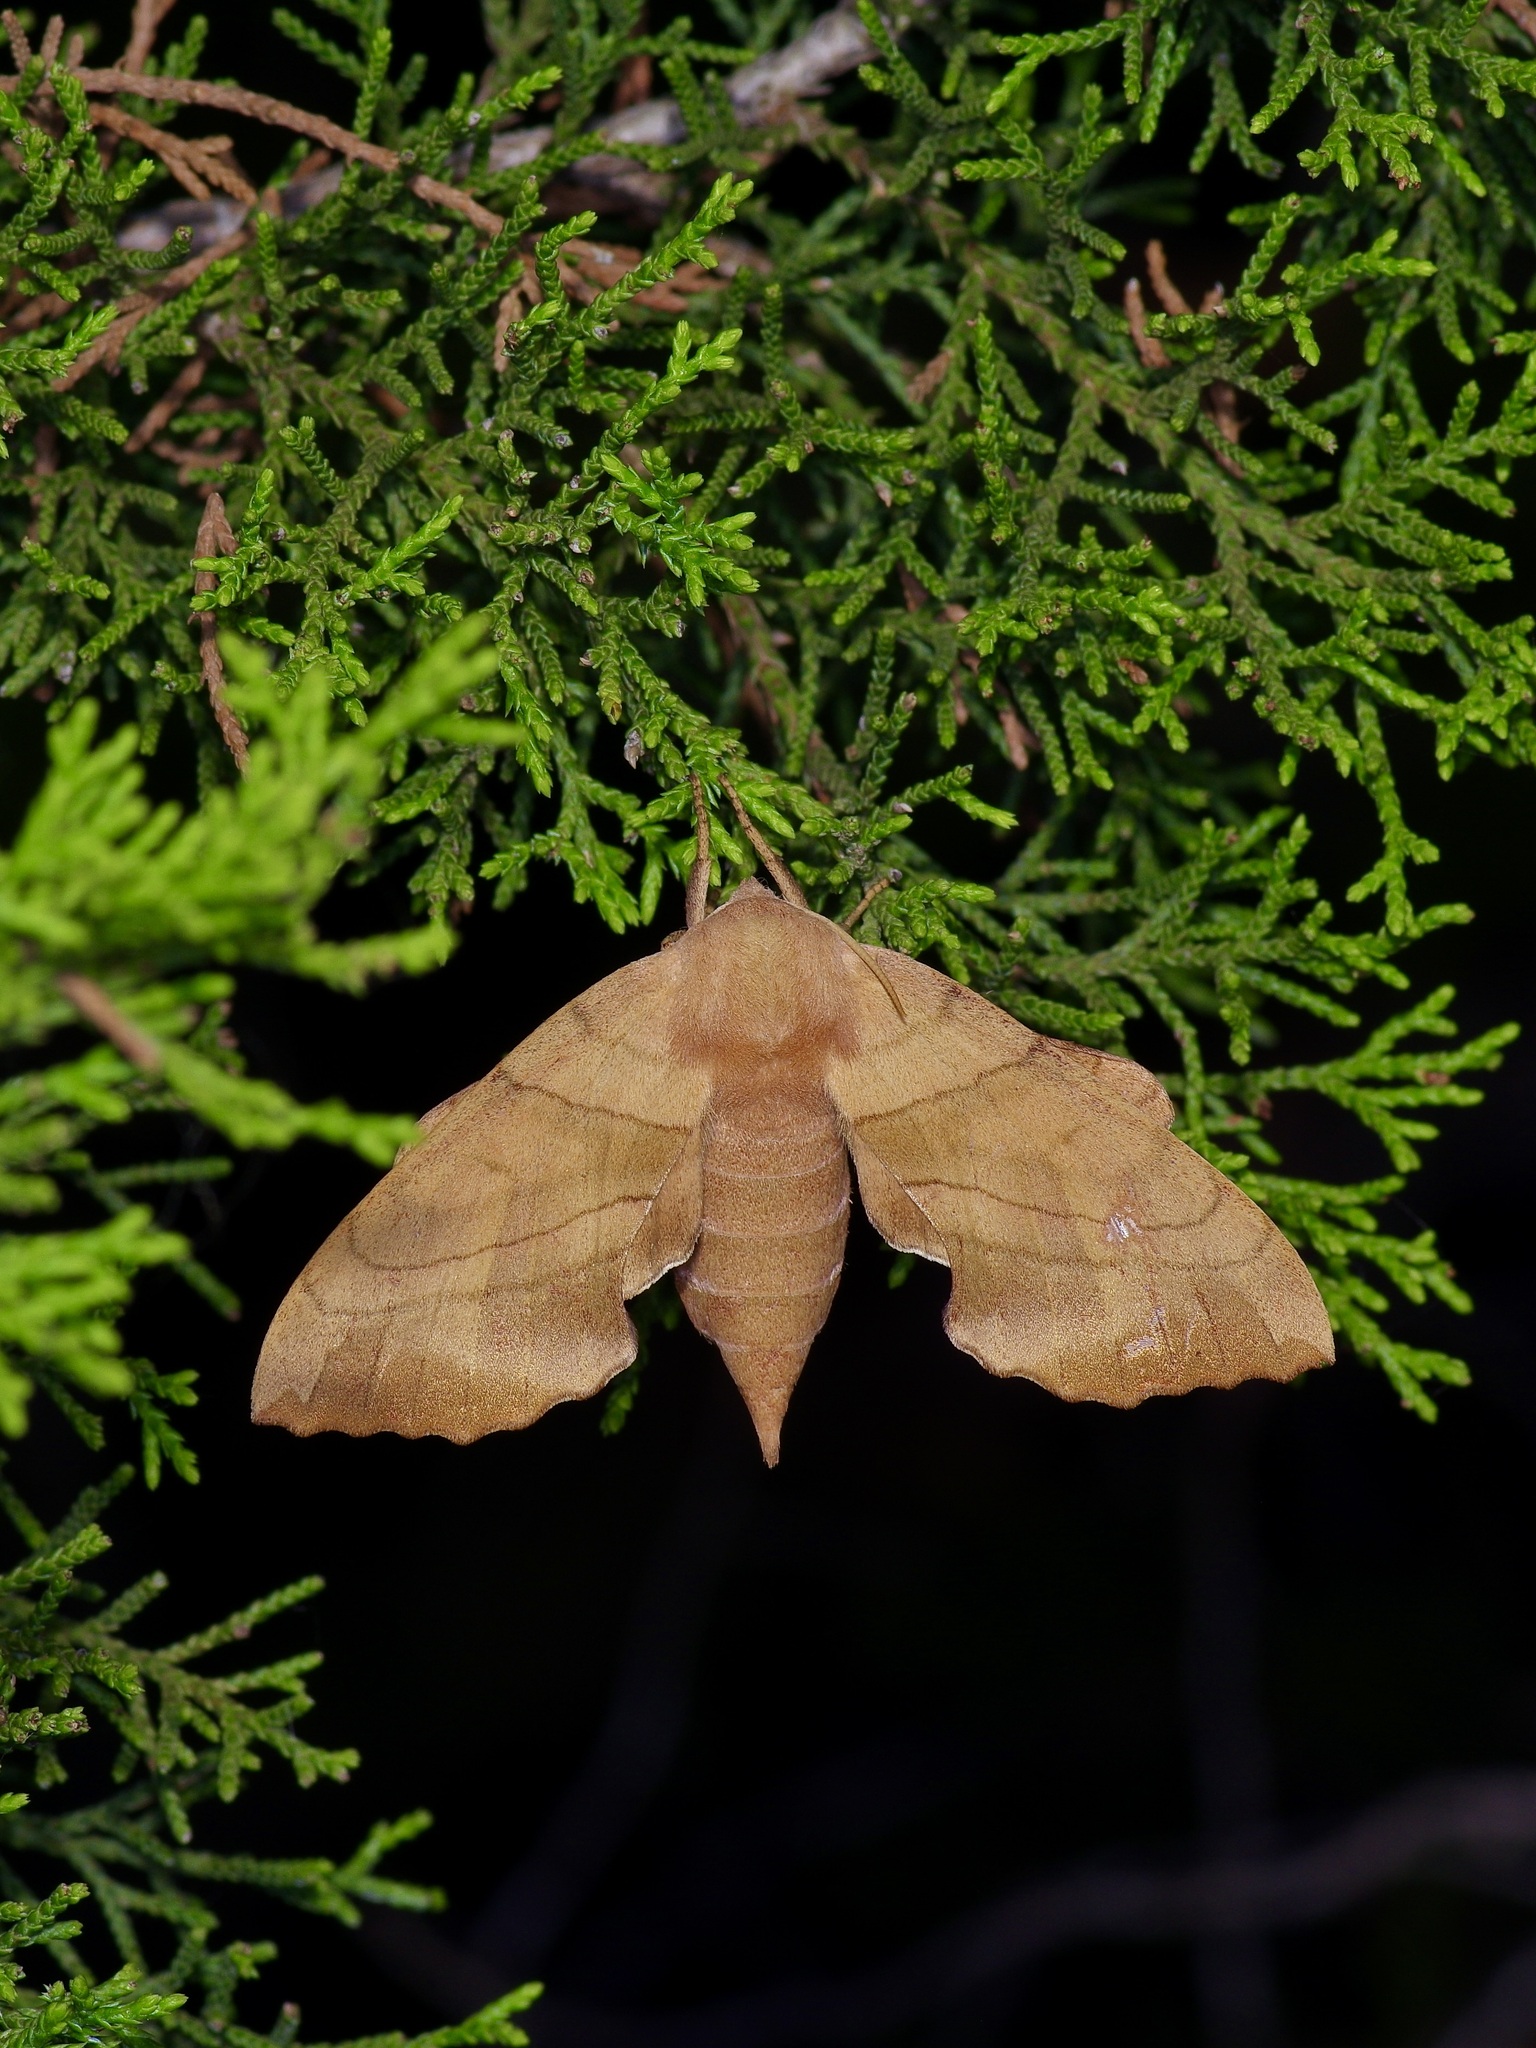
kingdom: Animalia
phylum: Arthropoda
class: Insecta
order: Lepidoptera
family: Sphingidae
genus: Amorpha
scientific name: Amorpha juglandis
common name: Walnut sphinx
